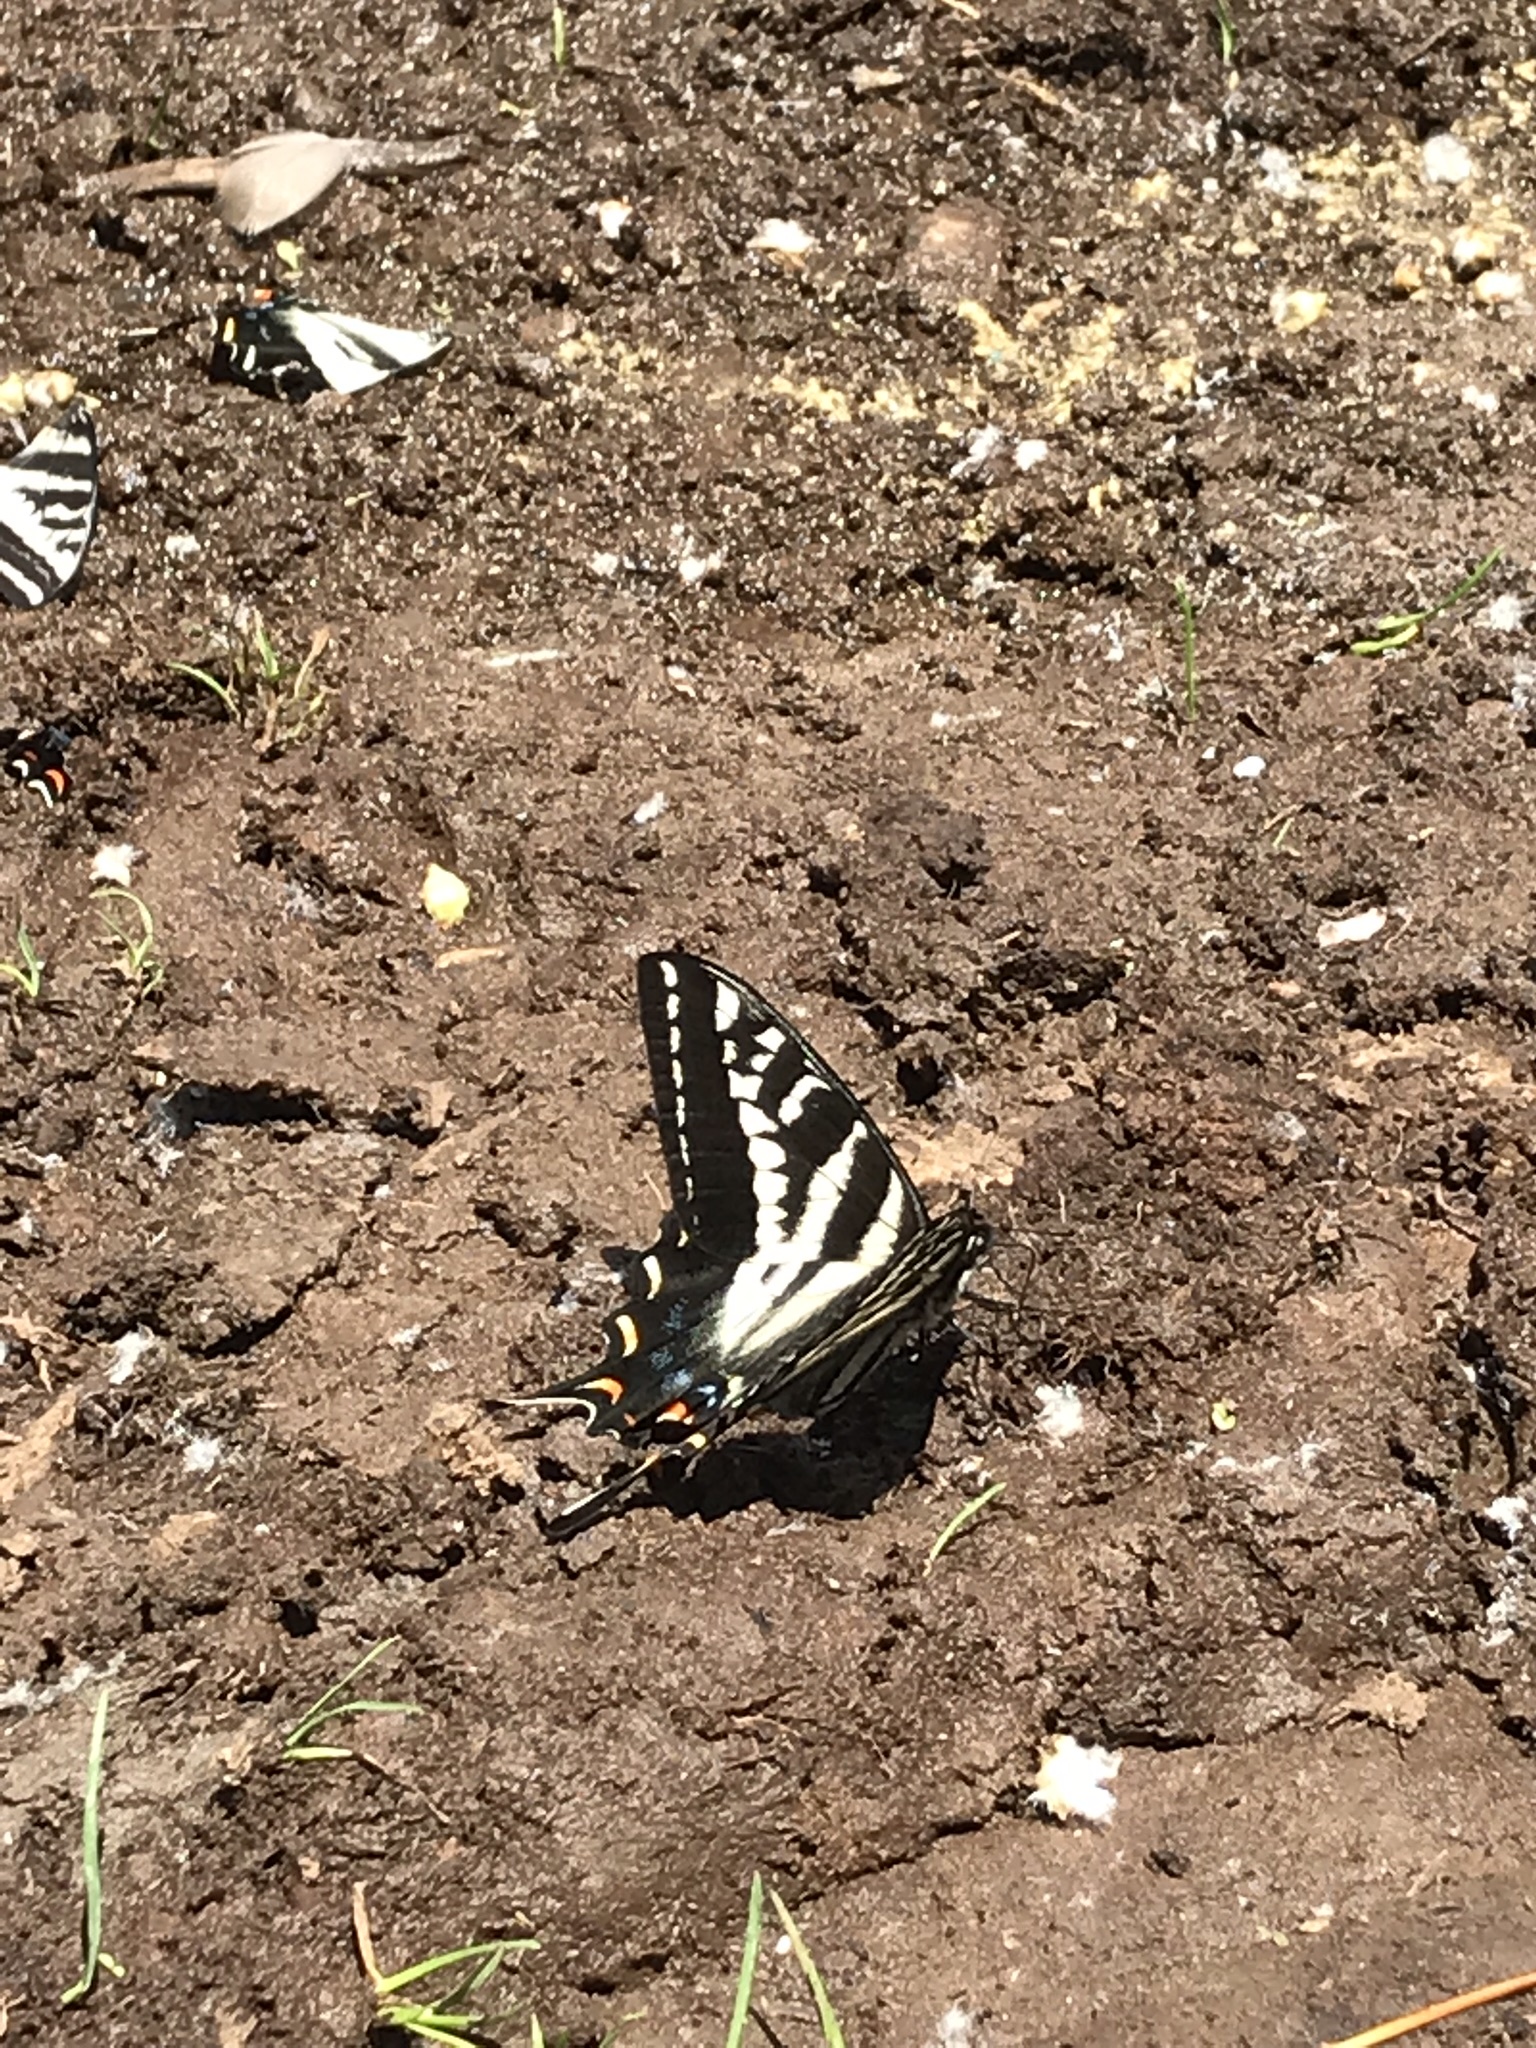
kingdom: Animalia
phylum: Arthropoda
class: Insecta
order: Lepidoptera
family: Papilionidae
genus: Papilio
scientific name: Papilio eurymedon
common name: Pale tiger swallowtail
